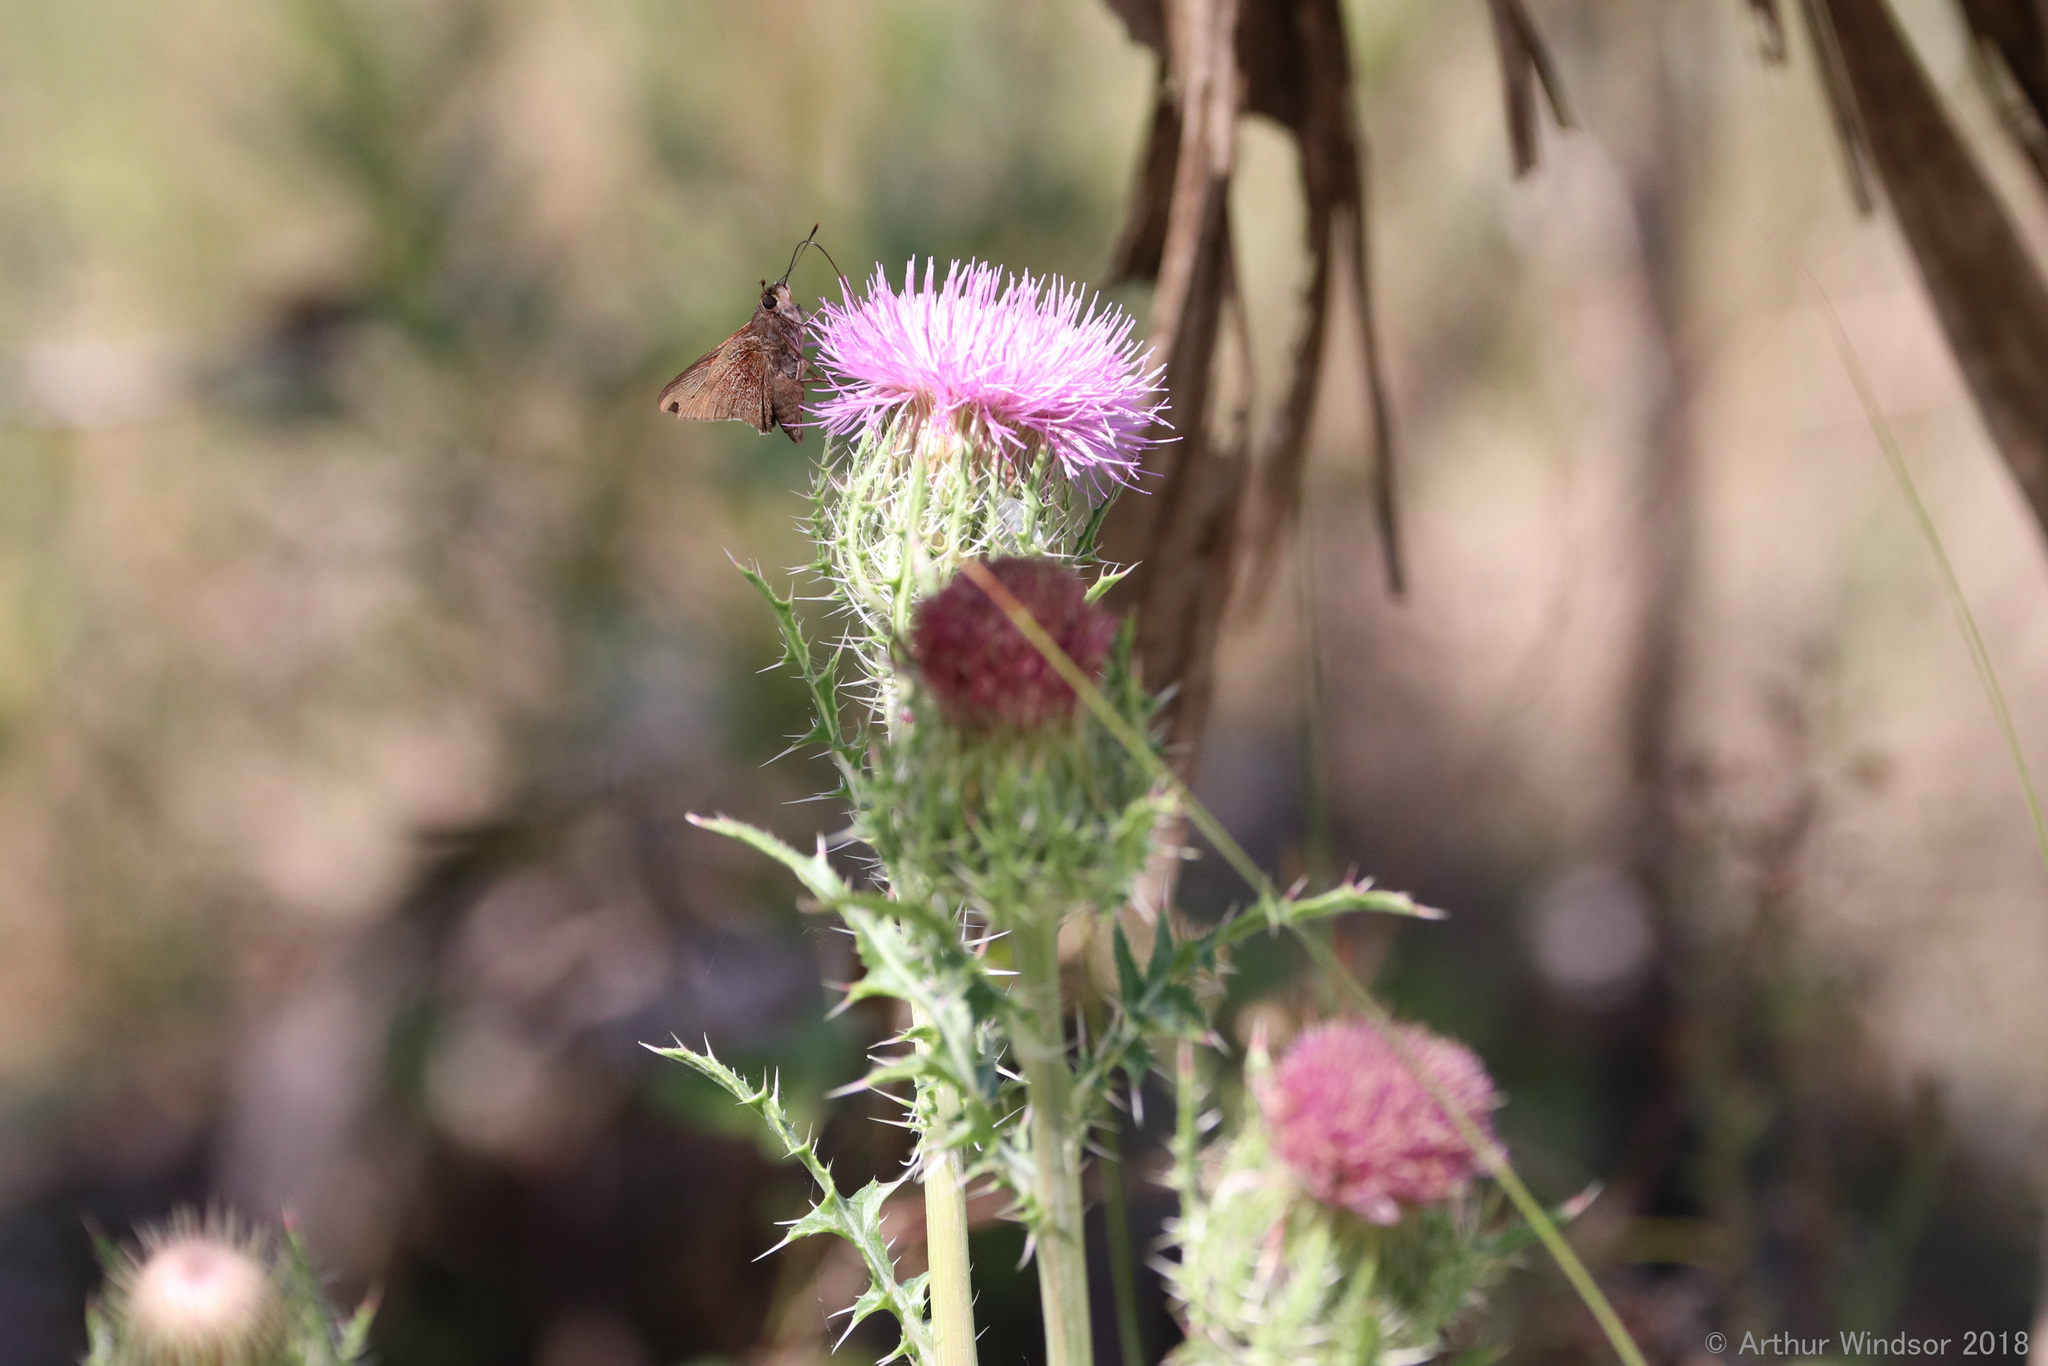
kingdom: Animalia
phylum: Arthropoda
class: Insecta
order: Lepidoptera
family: Hesperiidae
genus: Asbolis
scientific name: Asbolis capucinus
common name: Monk skipper
